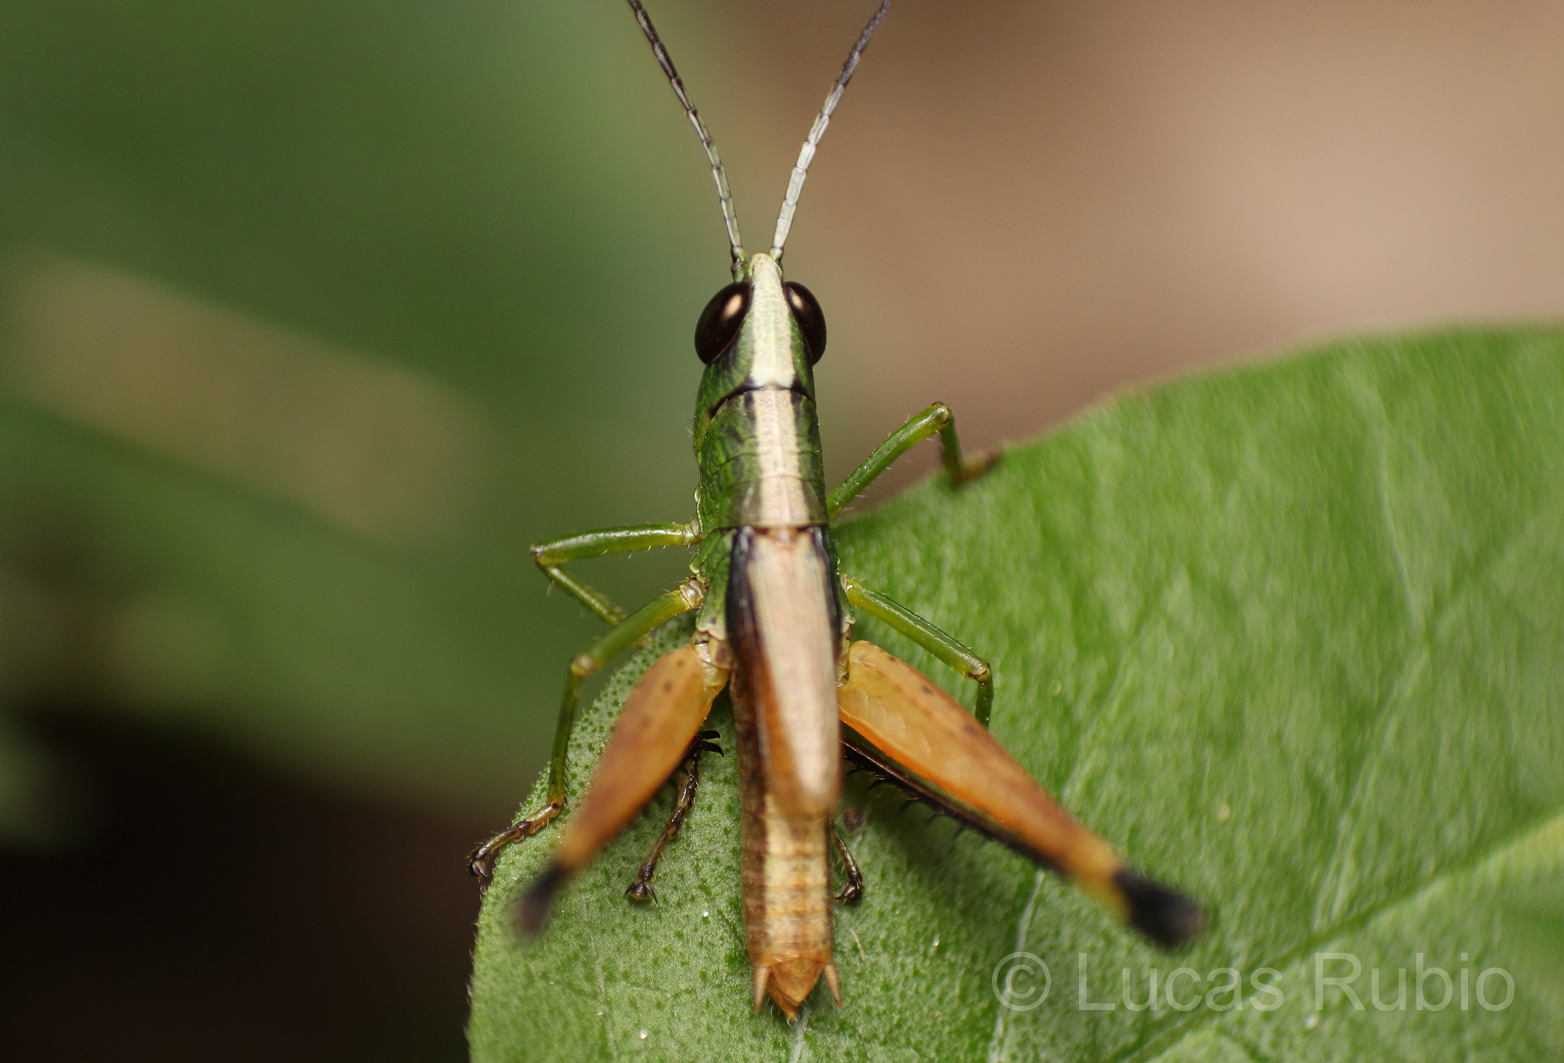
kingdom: Animalia
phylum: Arthropoda
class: Insecta
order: Orthoptera
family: Acrididae
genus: Silvitettix
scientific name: Silvitettix territus
